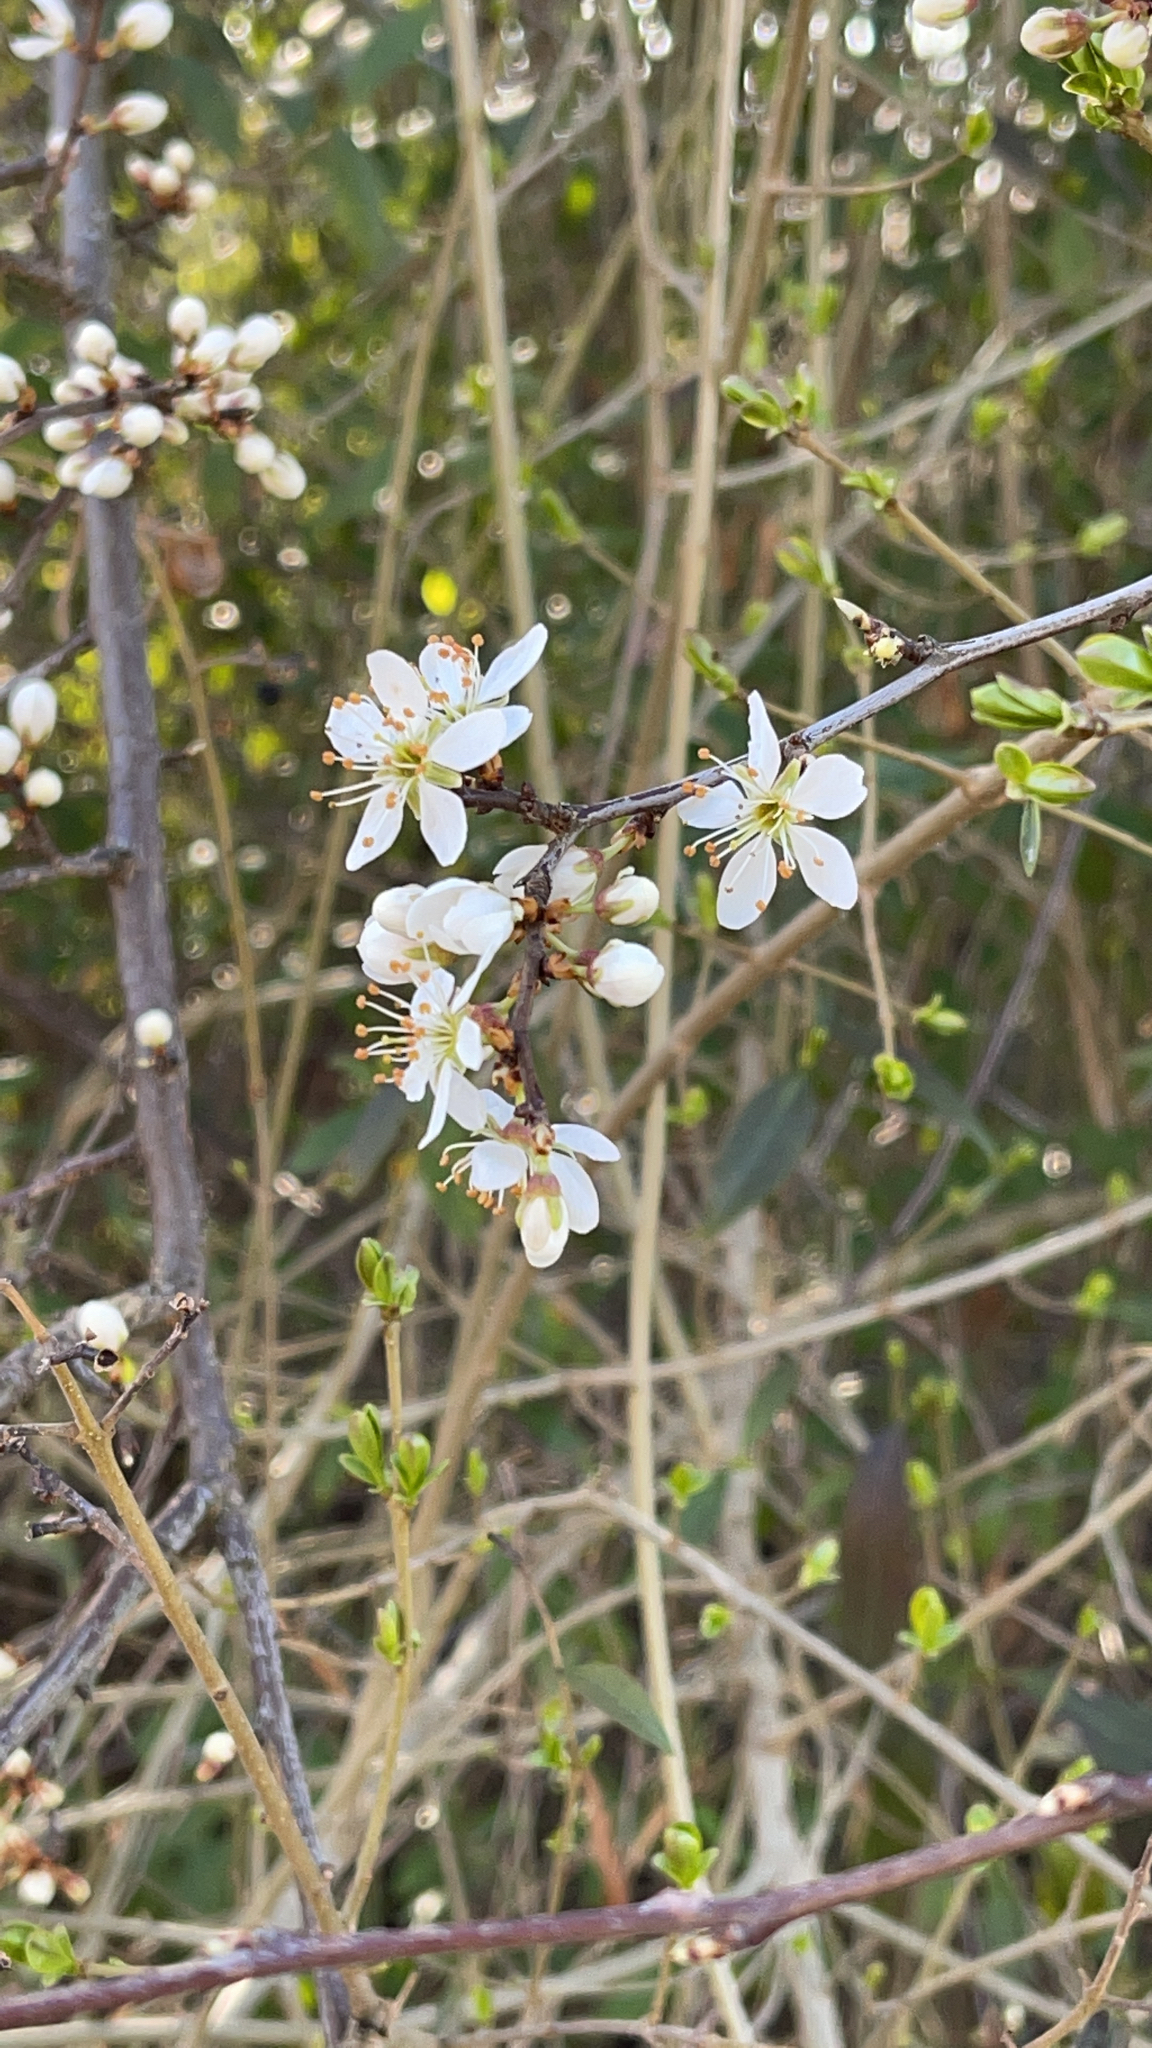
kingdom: Plantae
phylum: Tracheophyta
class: Magnoliopsida
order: Rosales
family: Rosaceae
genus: Prunus
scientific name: Prunus spinosa
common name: Blackthorn
